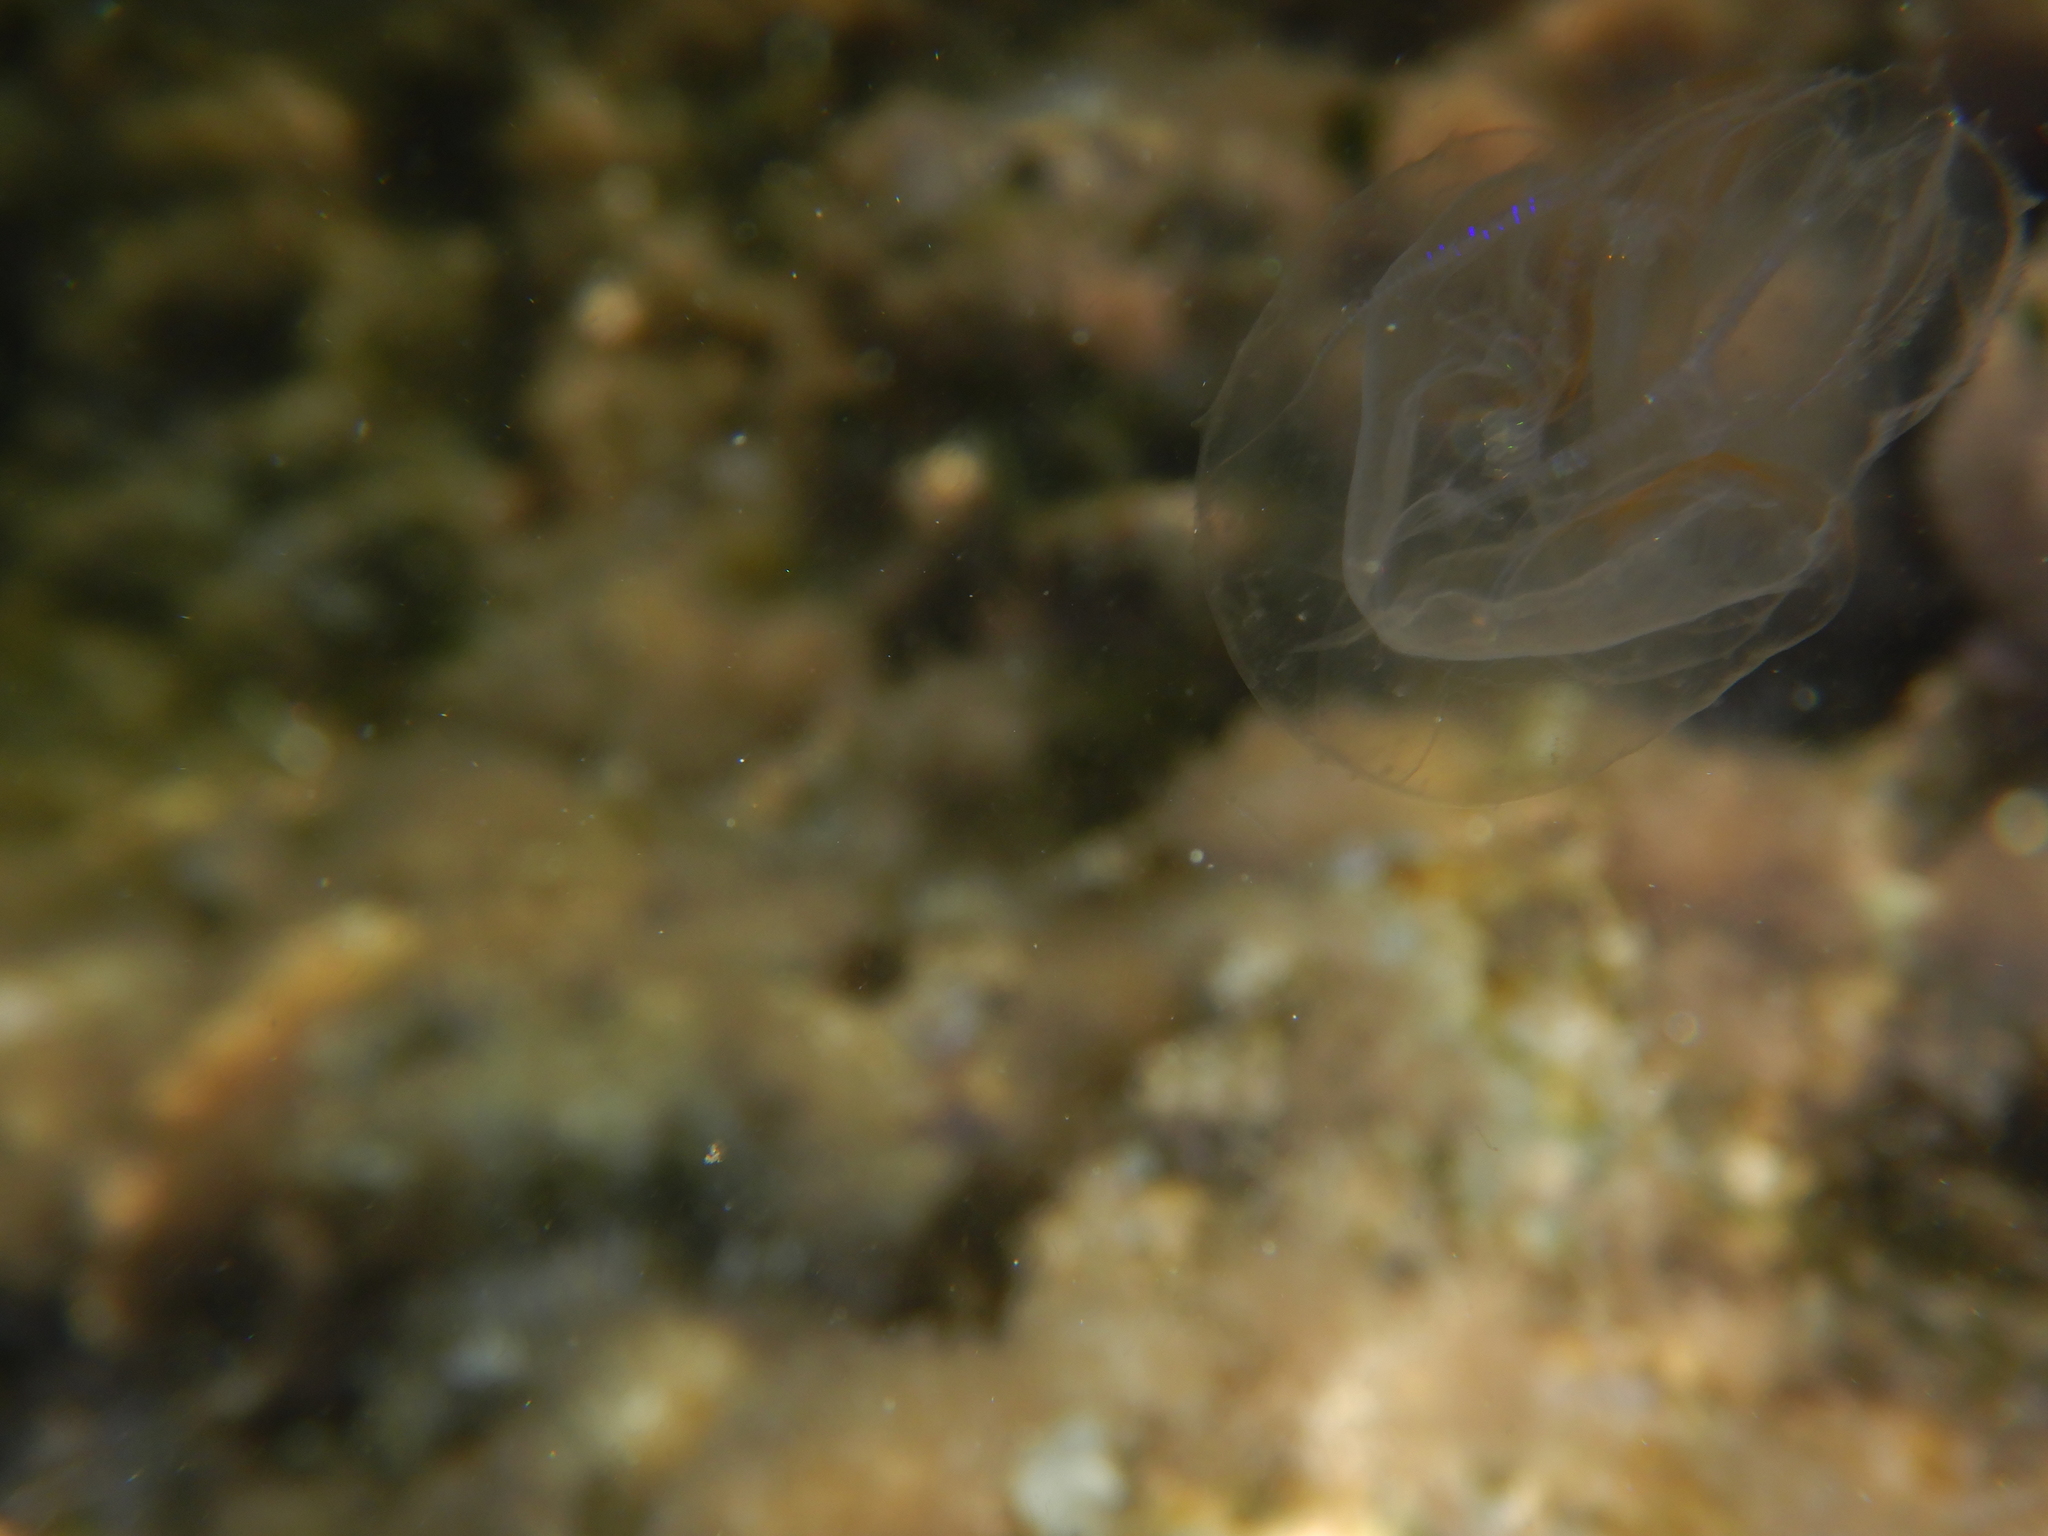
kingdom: Animalia
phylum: Ctenophora
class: Tentaculata
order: Lobata
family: Leucotheidae
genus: Leucothea
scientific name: Leucothea multicornis
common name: Vitreous lobate comb-jelly
